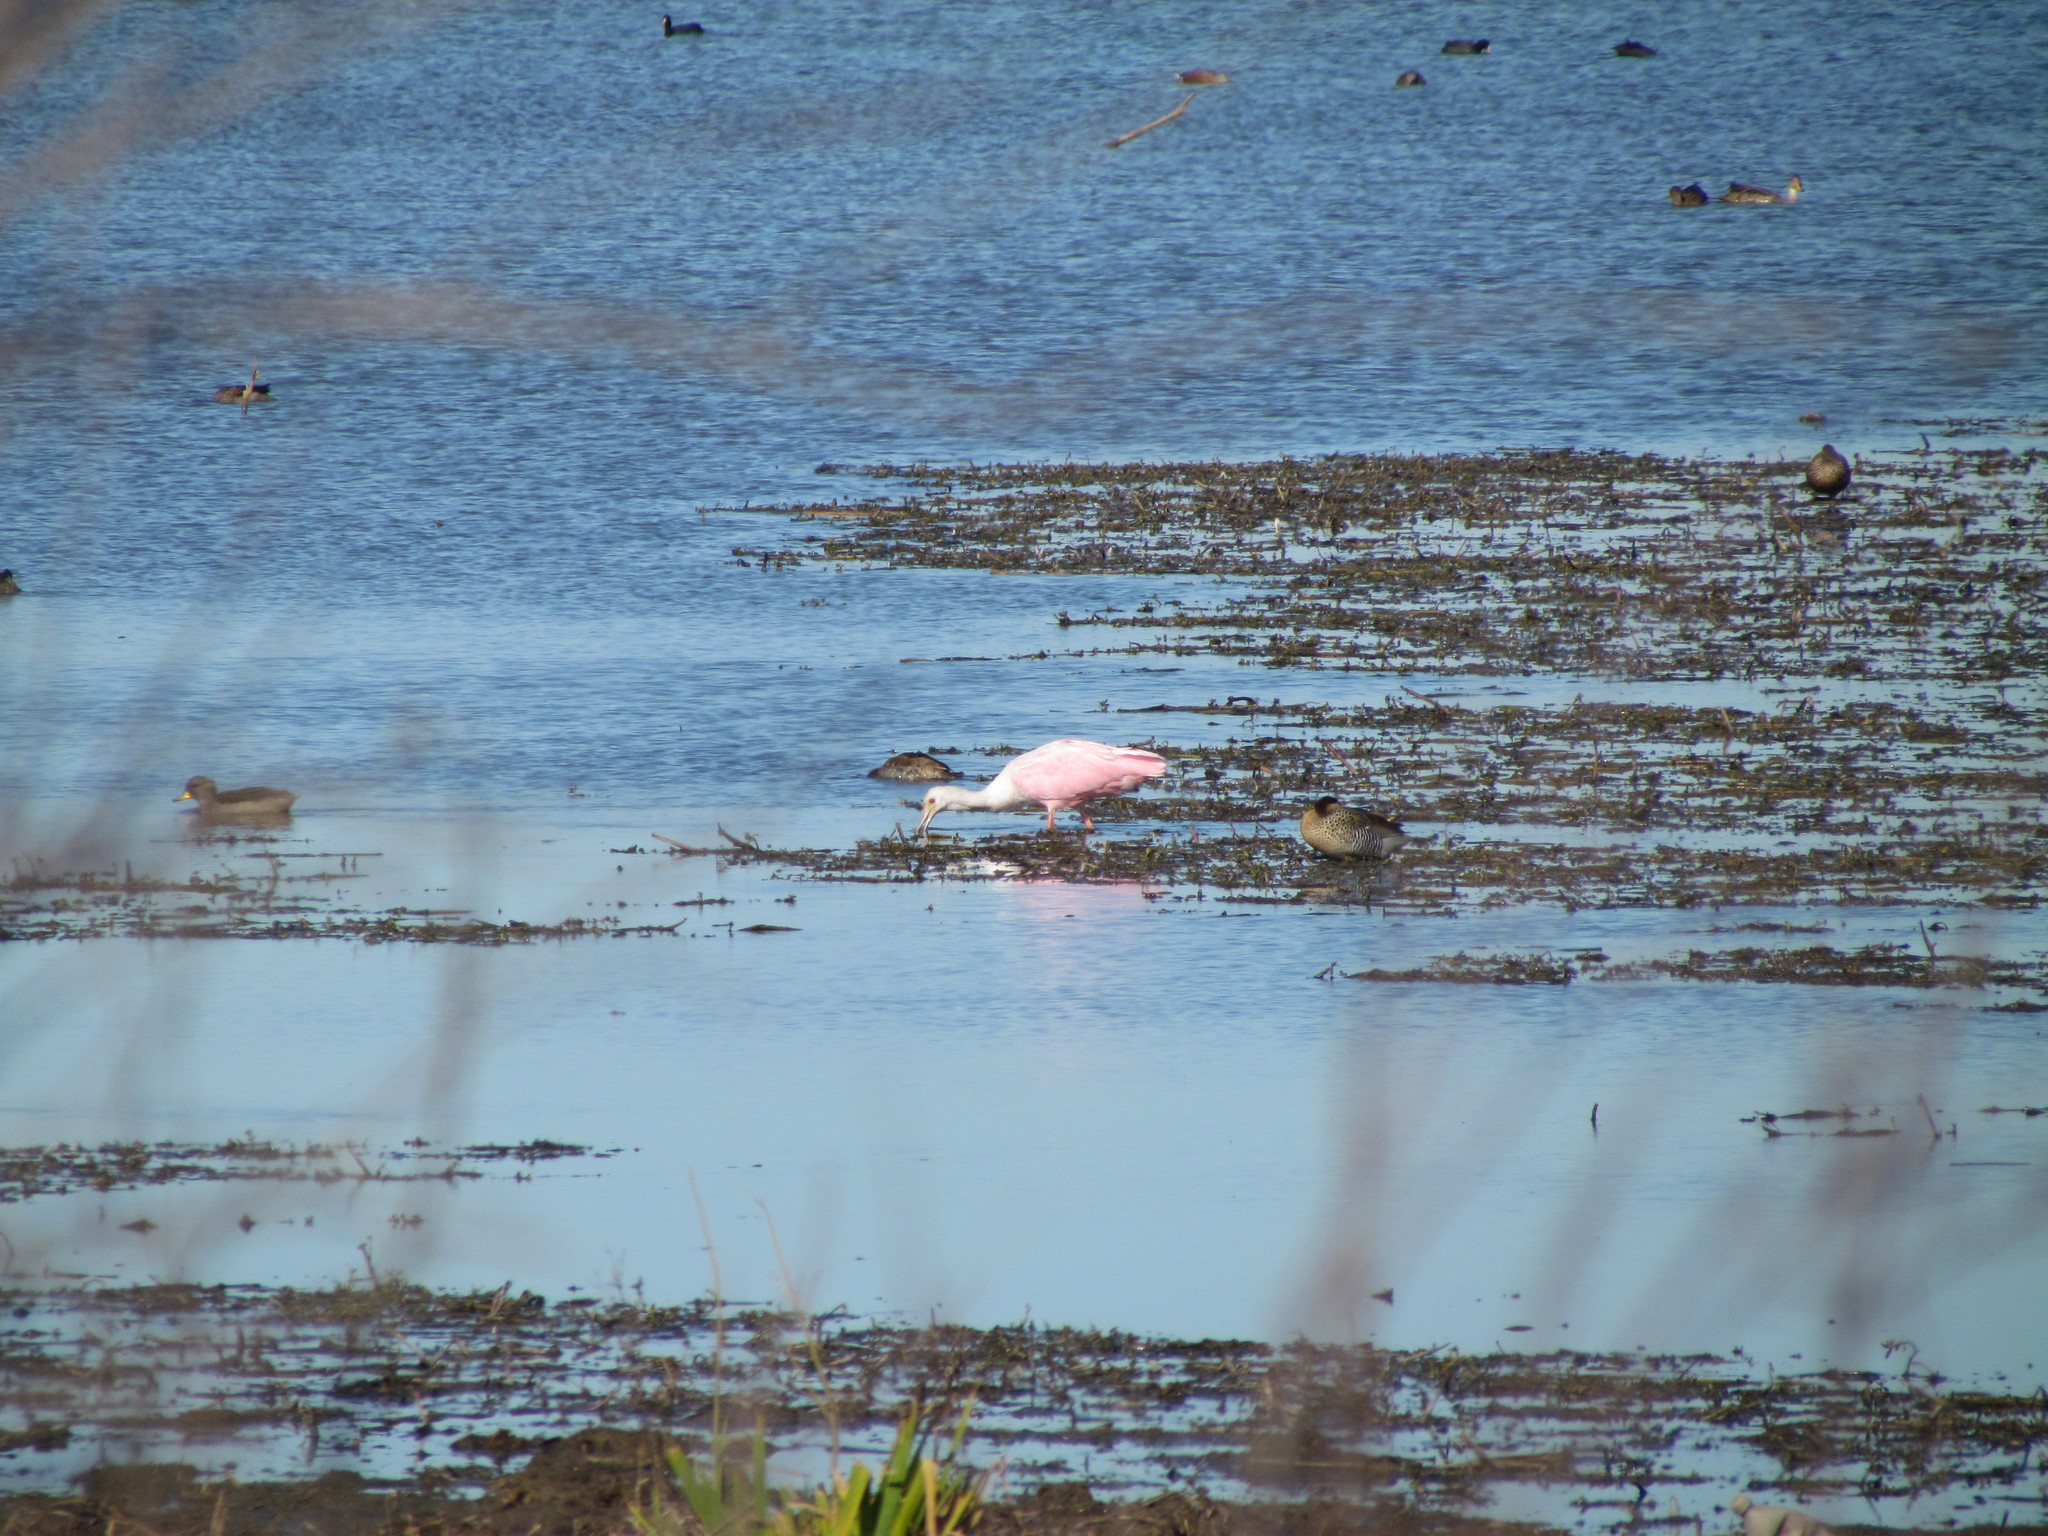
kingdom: Animalia
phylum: Chordata
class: Aves
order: Pelecaniformes
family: Threskiornithidae
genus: Platalea
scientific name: Platalea ajaja
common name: Roseate spoonbill
